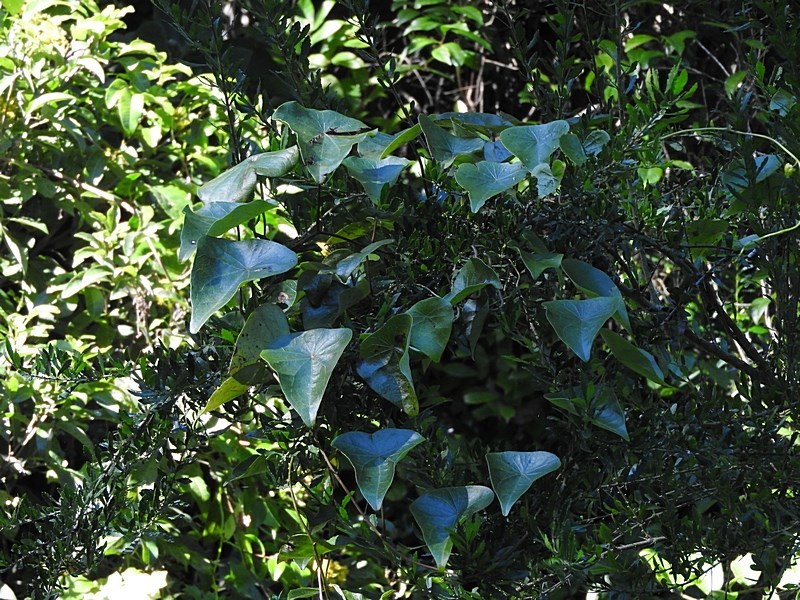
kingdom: Plantae
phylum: Tracheophyta
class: Magnoliopsida
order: Ranunculales
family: Menispermaceae
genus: Stephania
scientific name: Stephania japonica
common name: Snake vine
